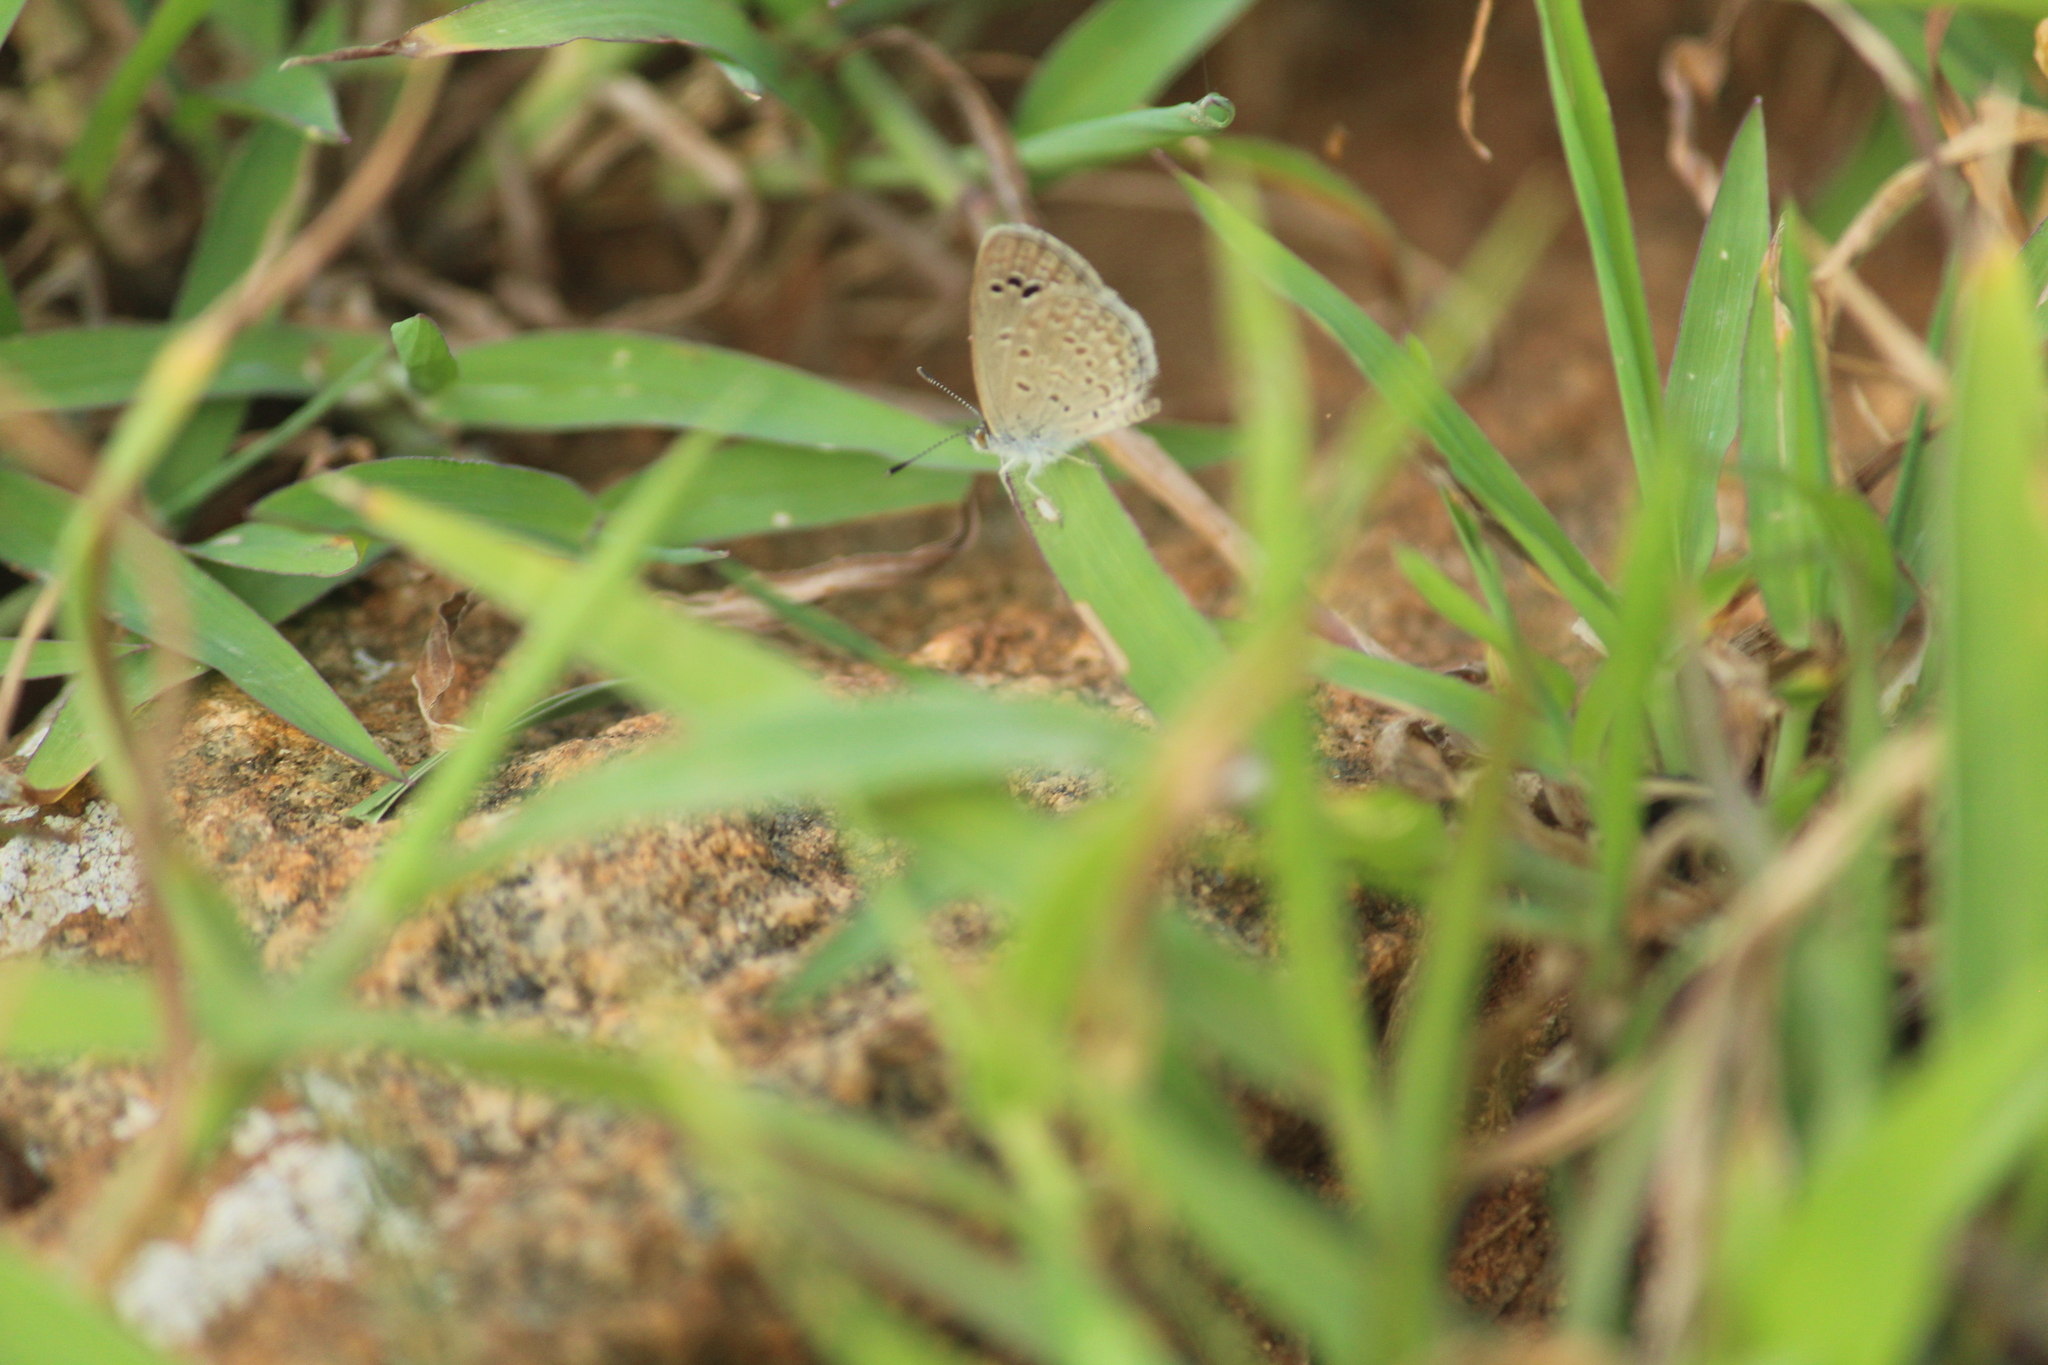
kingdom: Animalia
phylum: Arthropoda
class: Insecta
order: Lepidoptera
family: Lycaenidae
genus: Zizina
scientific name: Zizina otis
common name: Lesser grass blue
